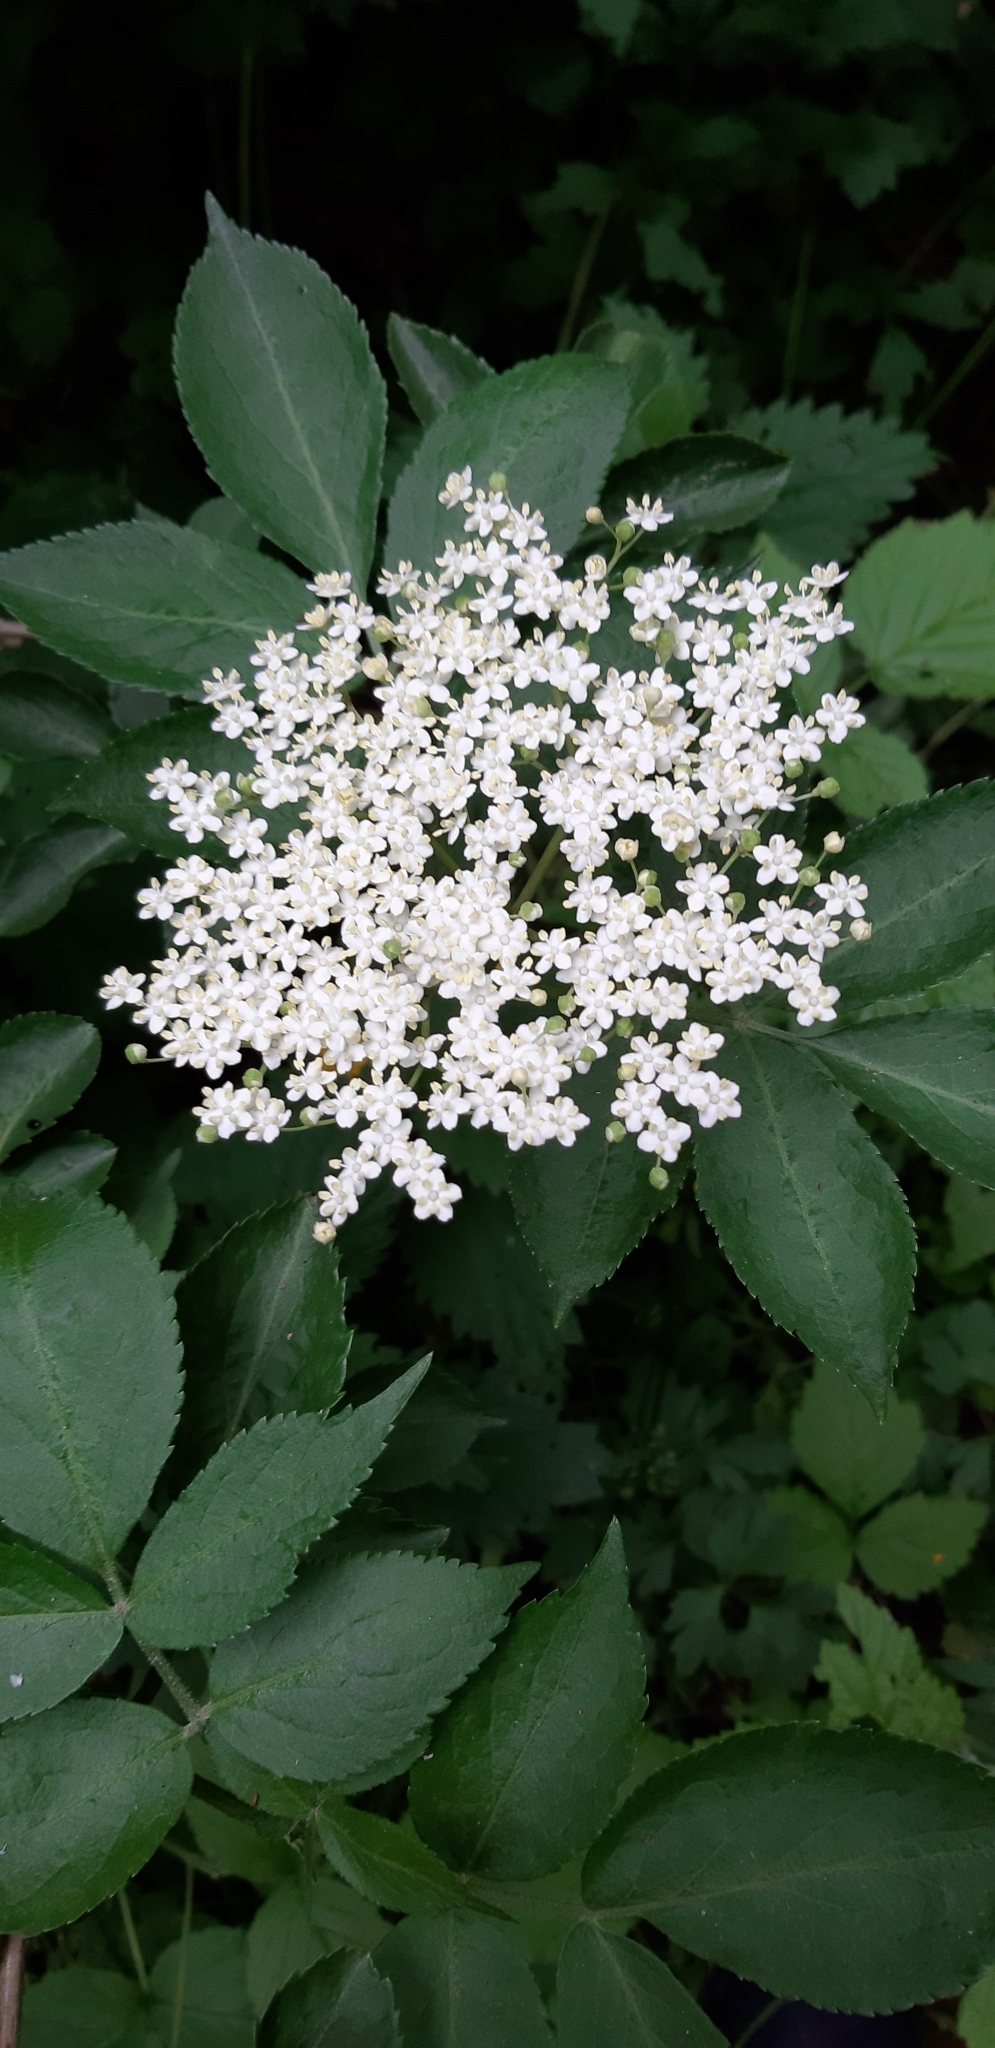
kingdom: Plantae
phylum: Tracheophyta
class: Magnoliopsida
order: Dipsacales
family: Viburnaceae
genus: Sambucus
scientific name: Sambucus nigra
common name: Elder
